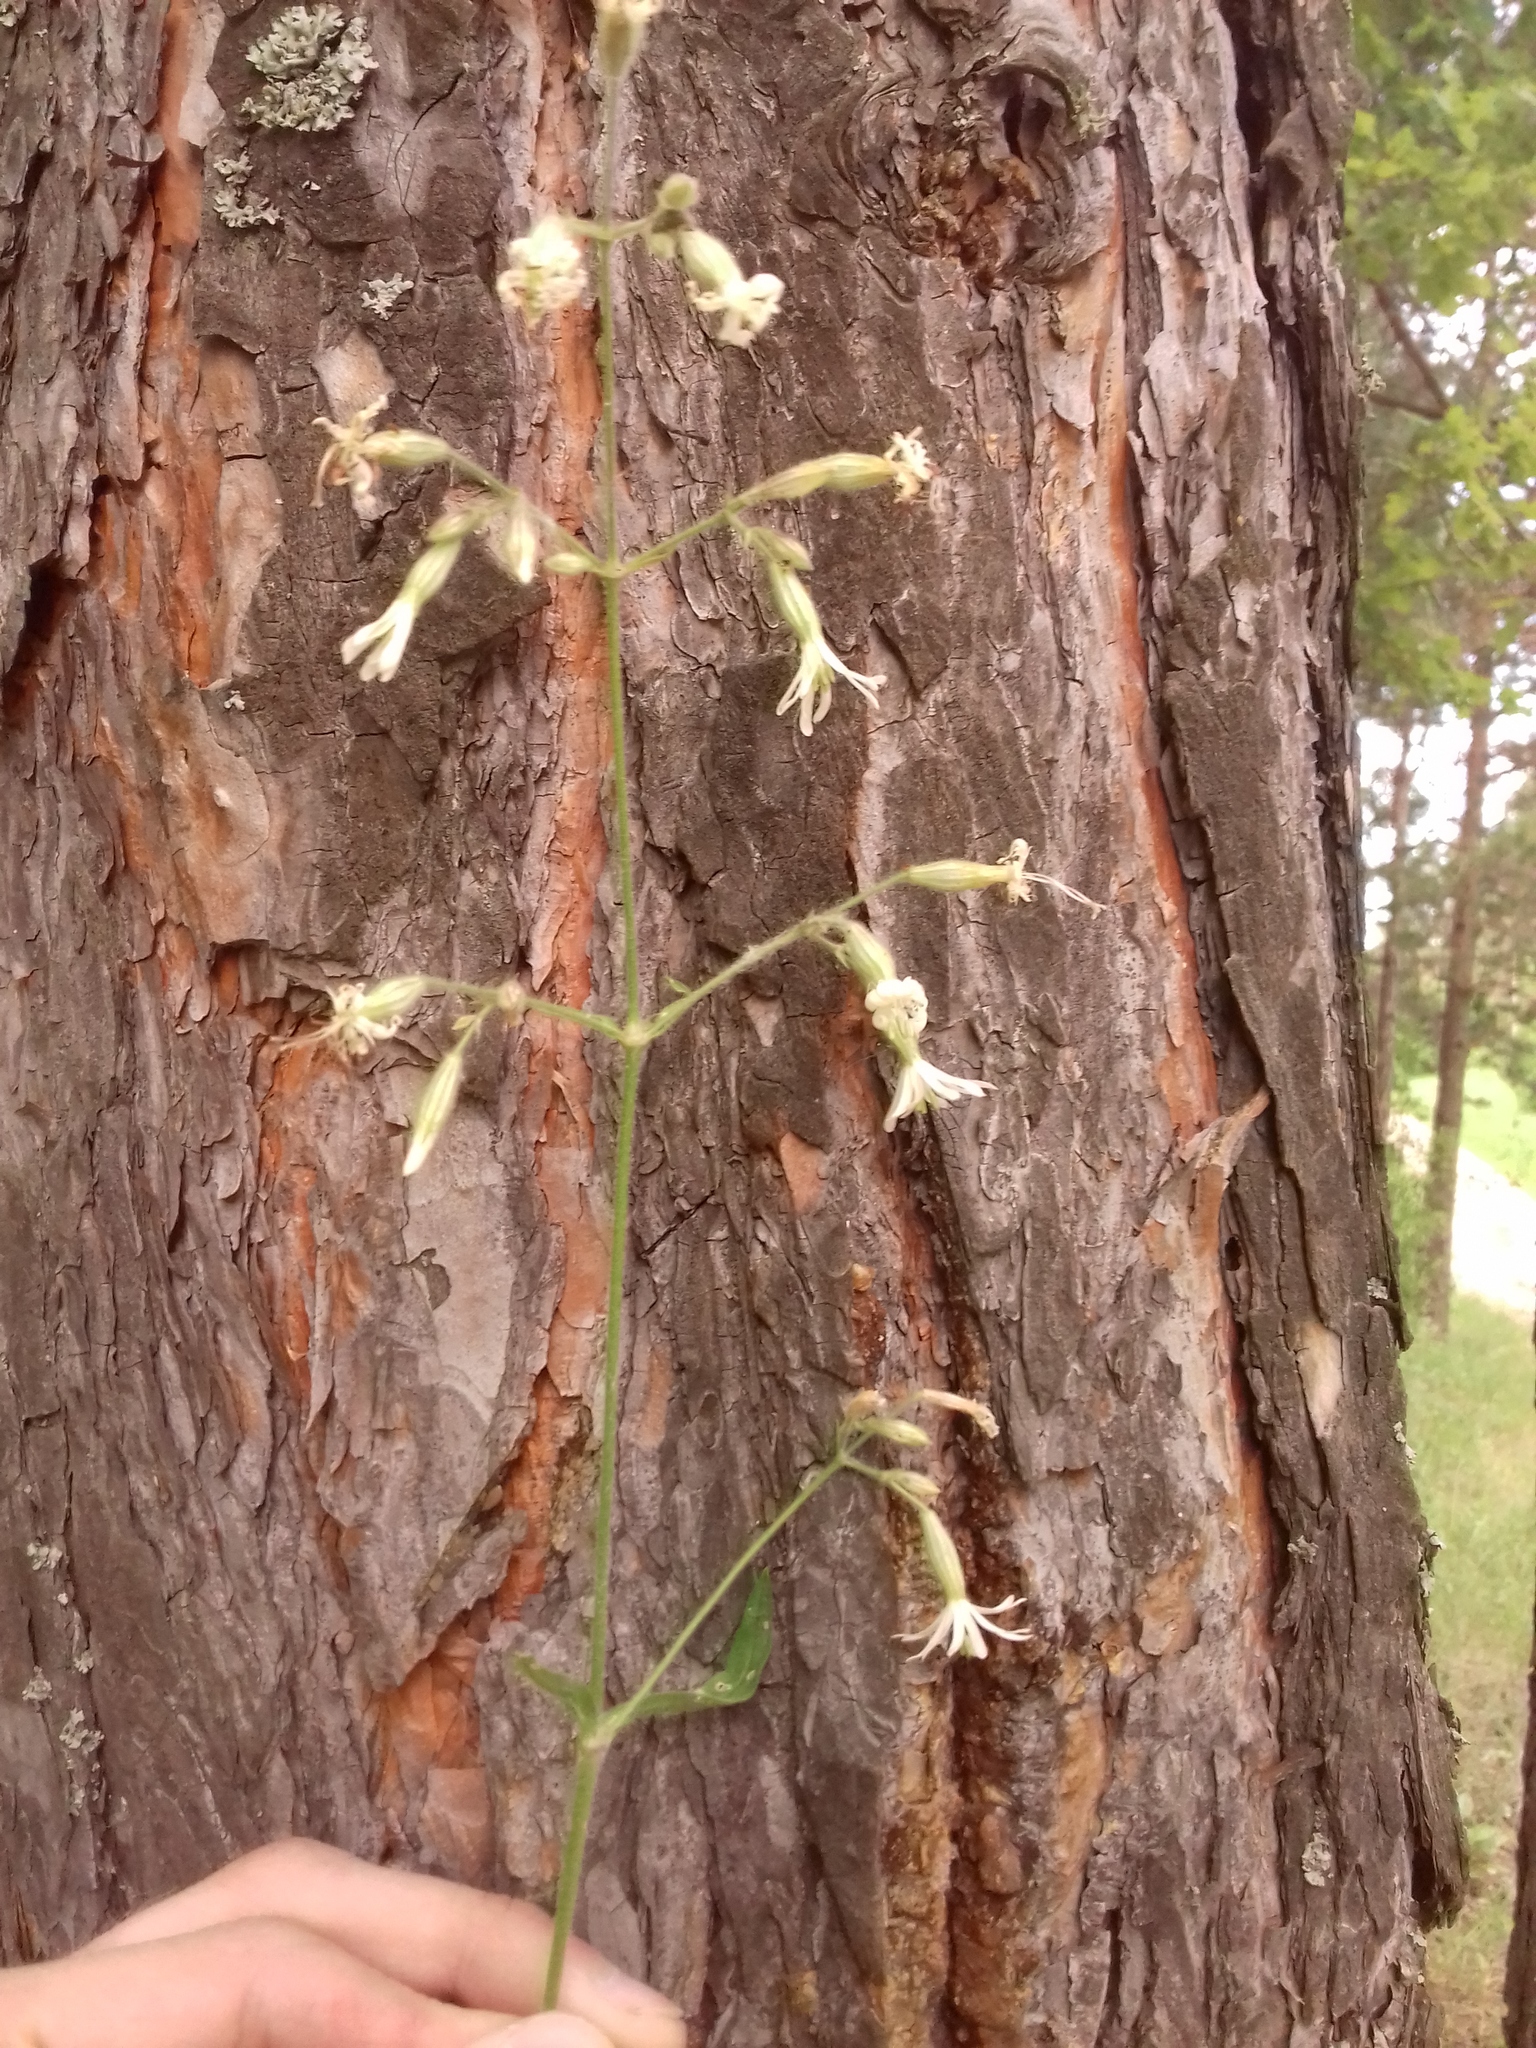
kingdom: Plantae
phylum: Tracheophyta
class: Magnoliopsida
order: Caryophyllales
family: Caryophyllaceae
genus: Silene
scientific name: Silene nutans
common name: Nottingham catchfly
